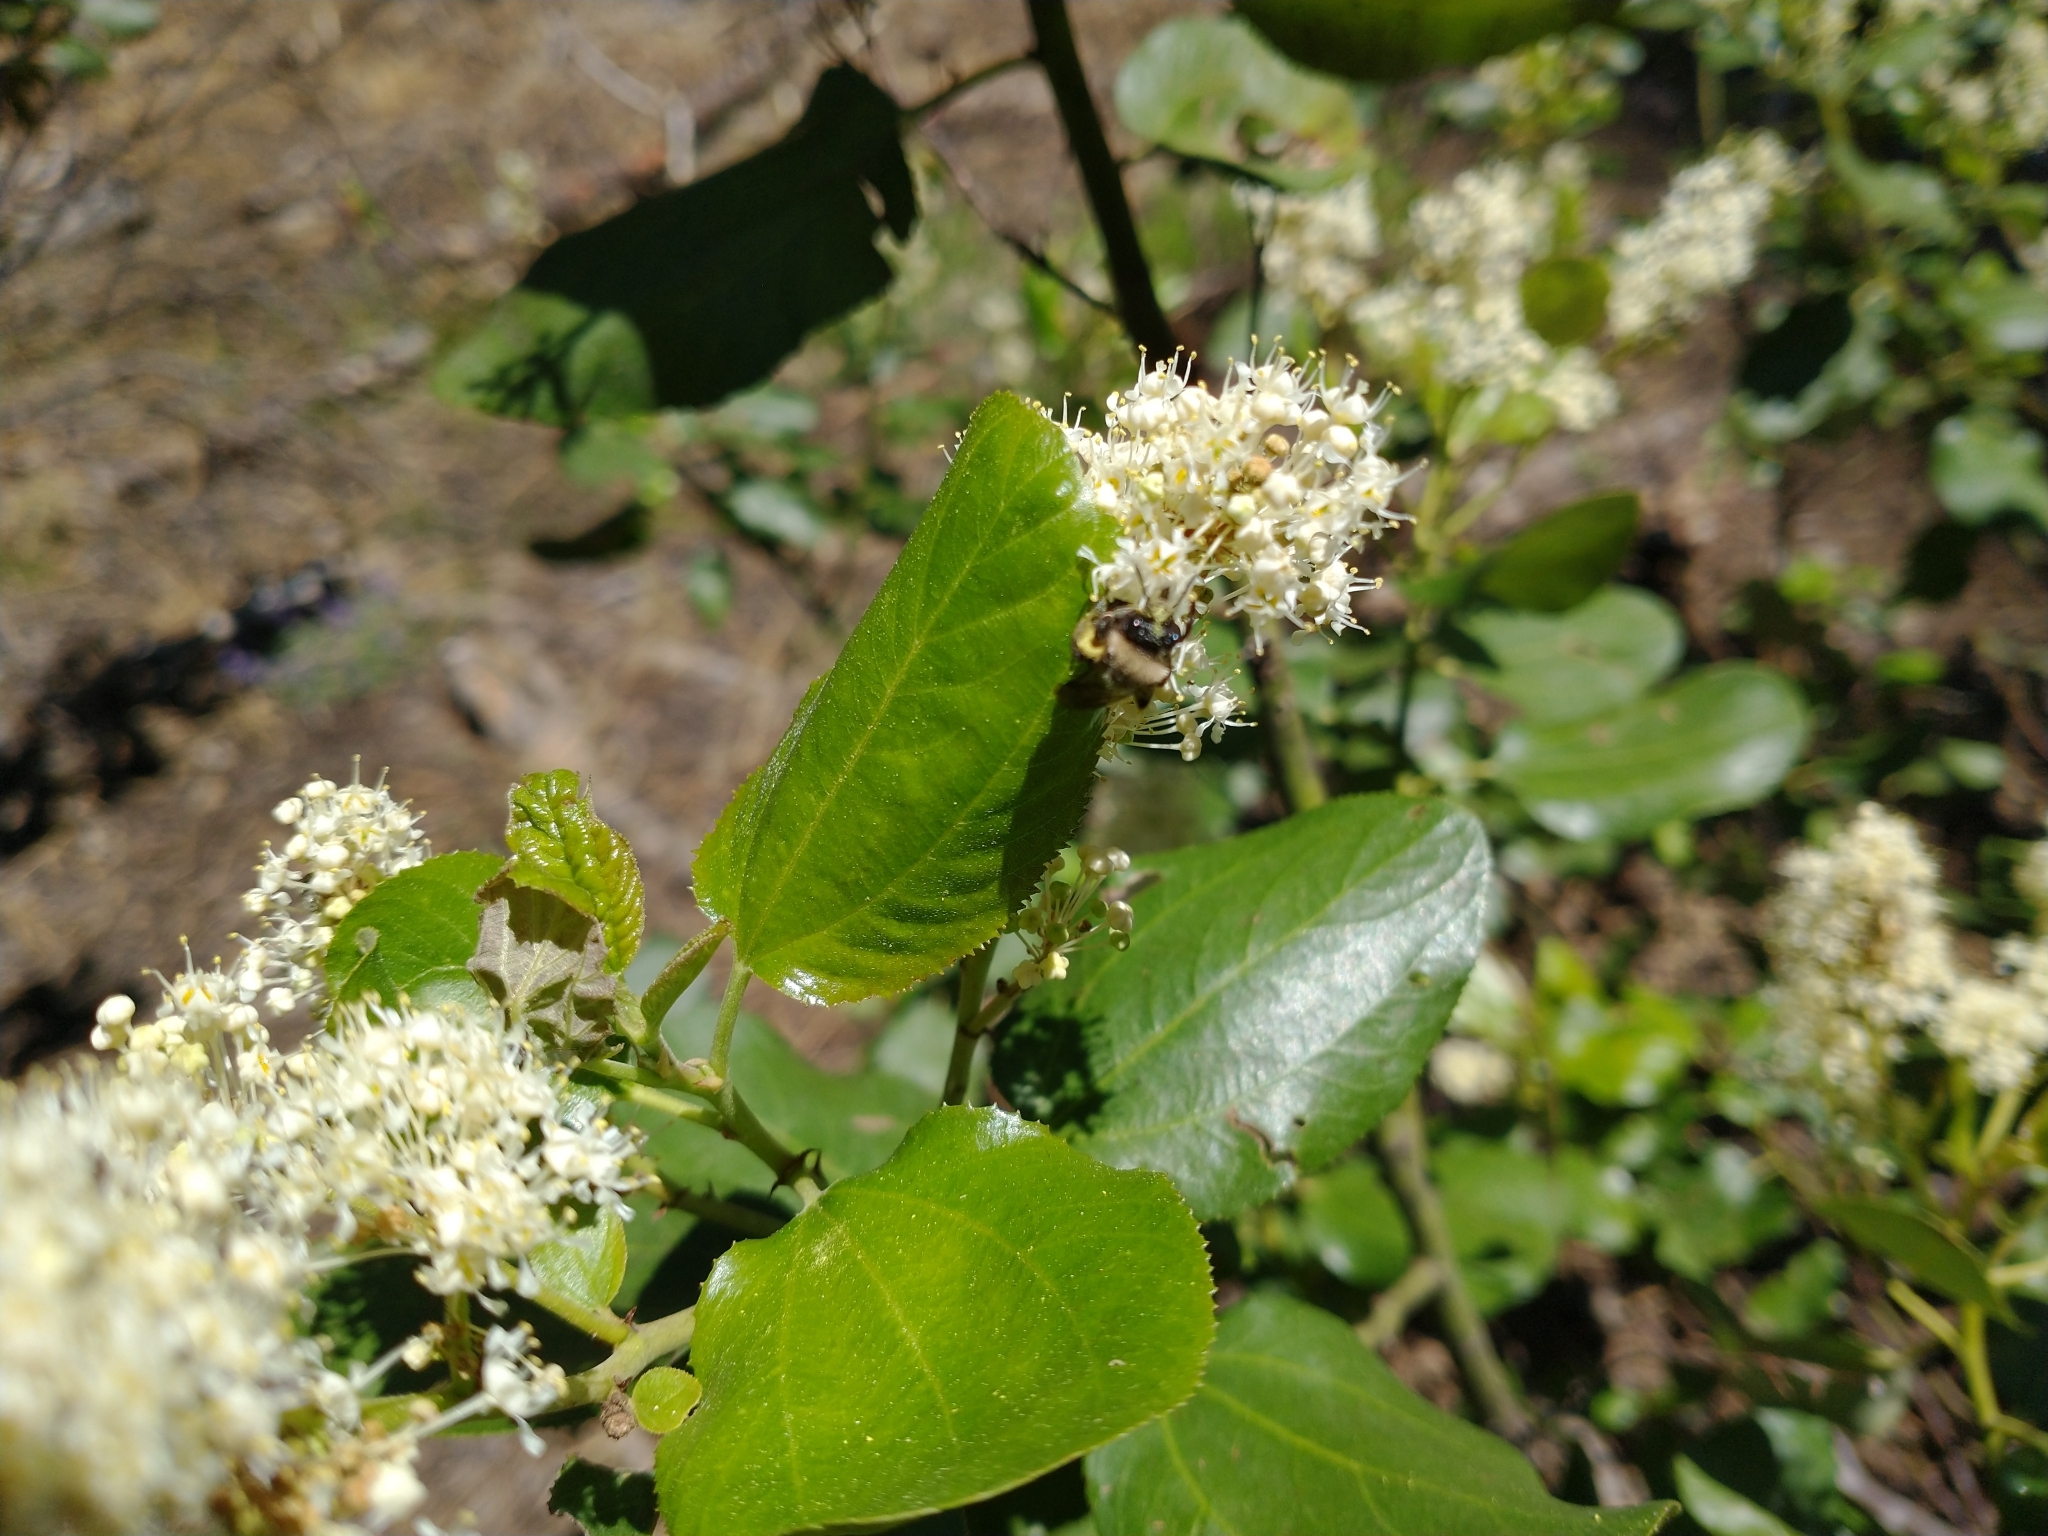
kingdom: Plantae
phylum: Tracheophyta
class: Magnoliopsida
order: Rosales
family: Rhamnaceae
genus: Ceanothus
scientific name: Ceanothus velutinus
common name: Snowbrush
